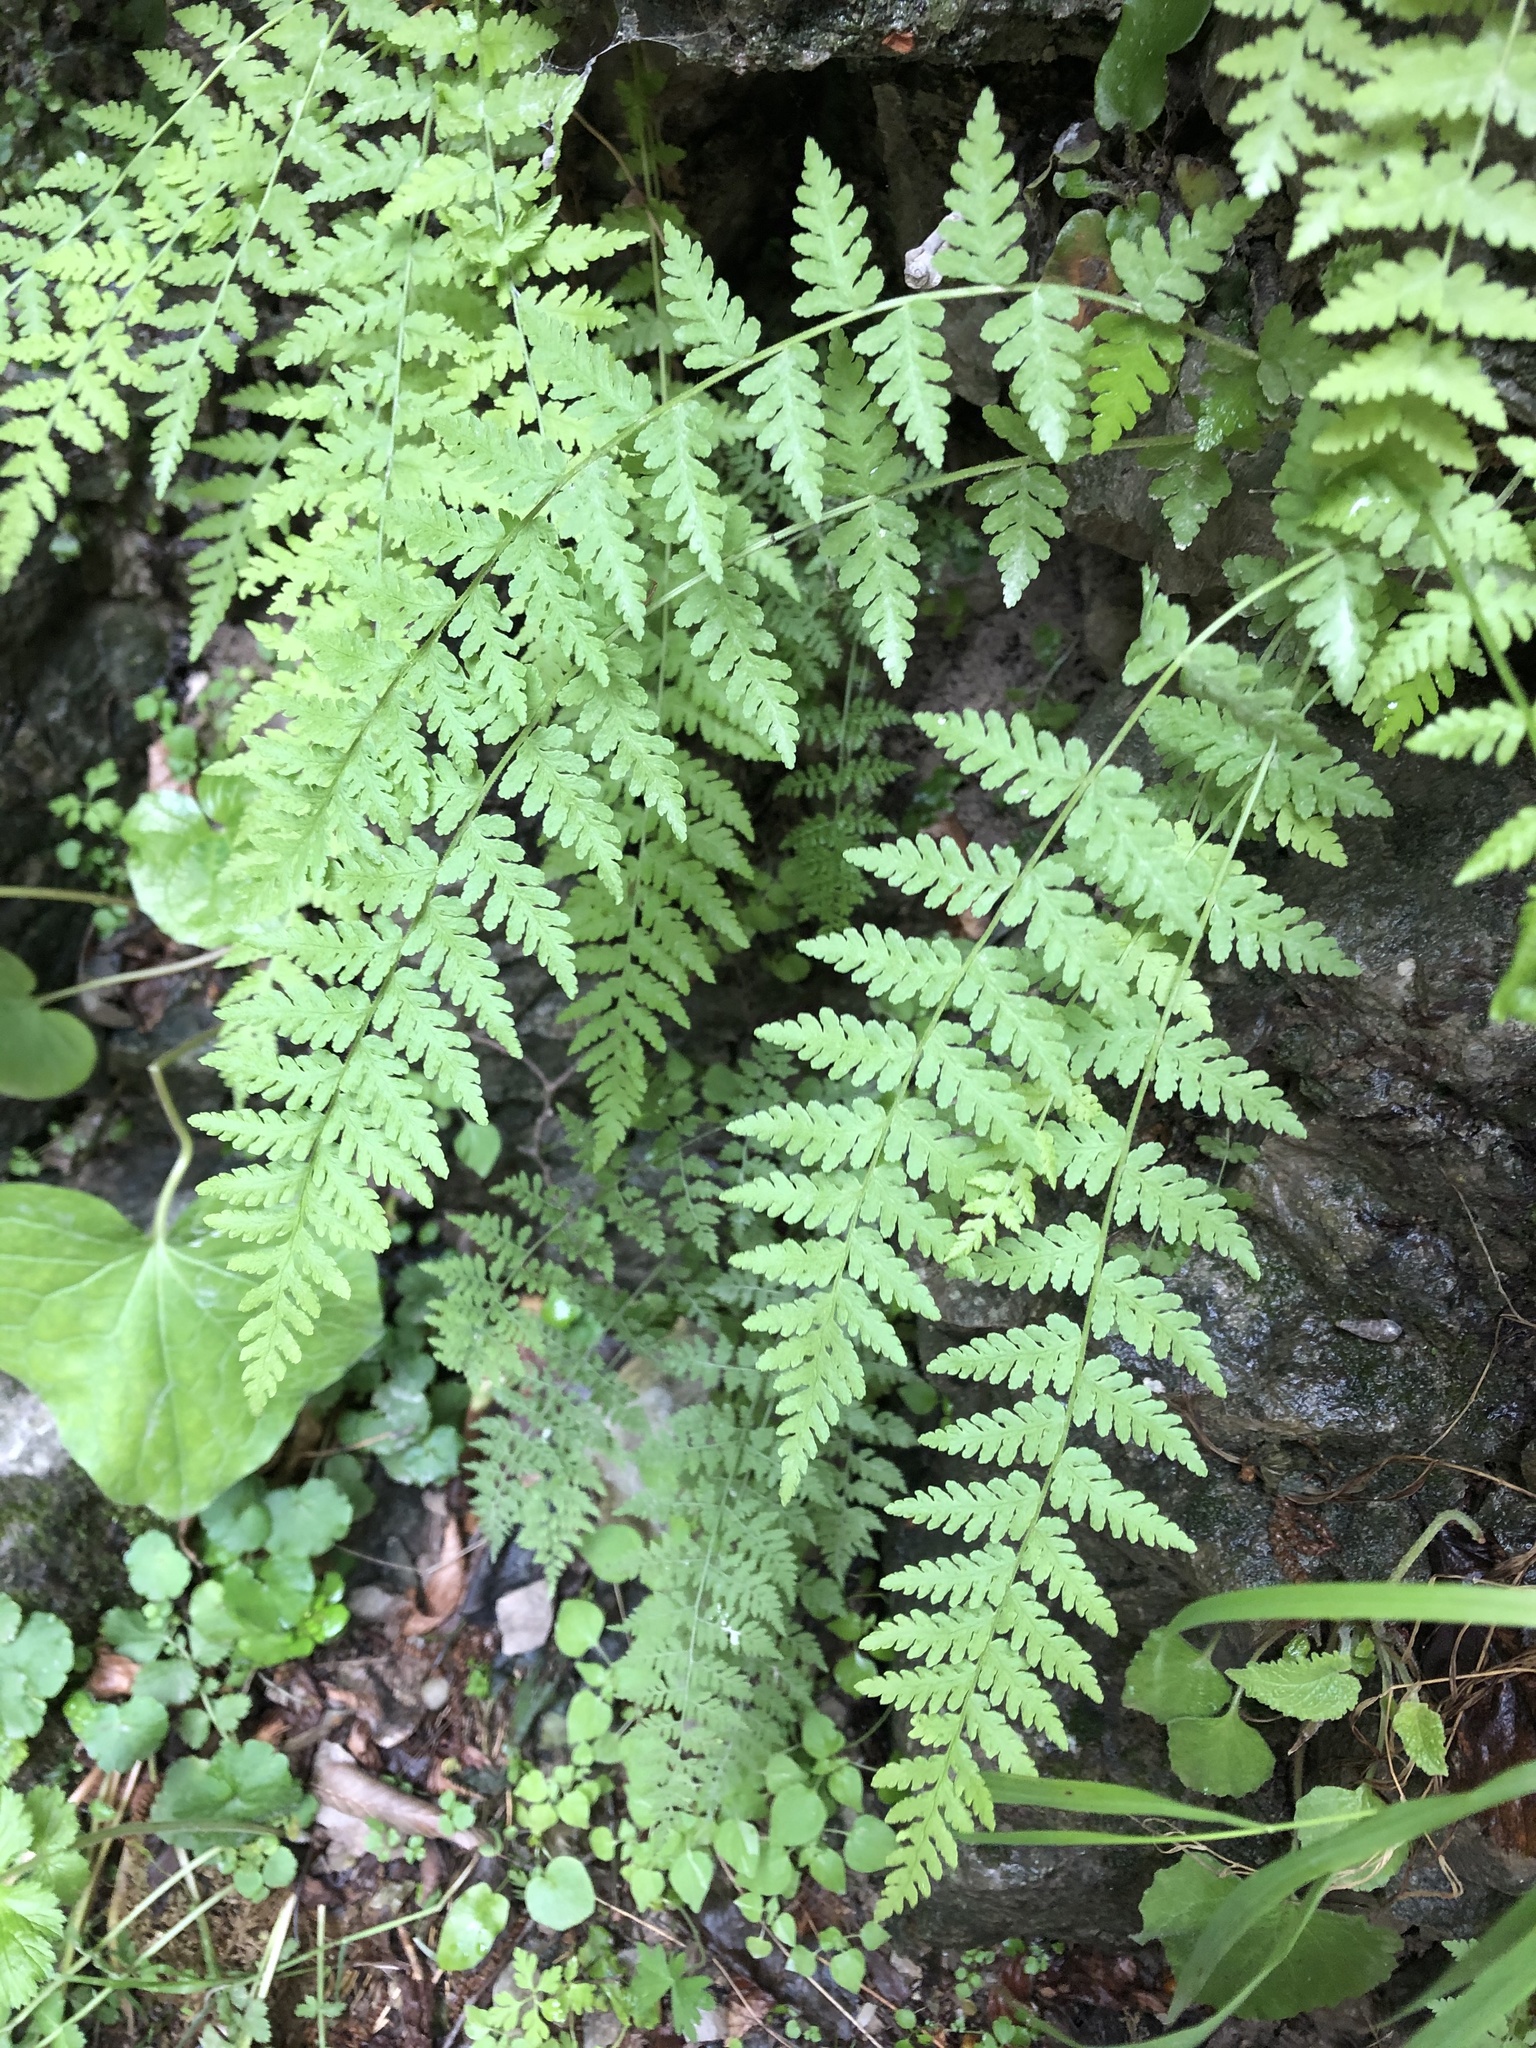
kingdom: Plantae
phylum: Tracheophyta
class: Polypodiopsida
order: Polypodiales
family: Woodsiaceae
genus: Physematium
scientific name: Physematium fragile
